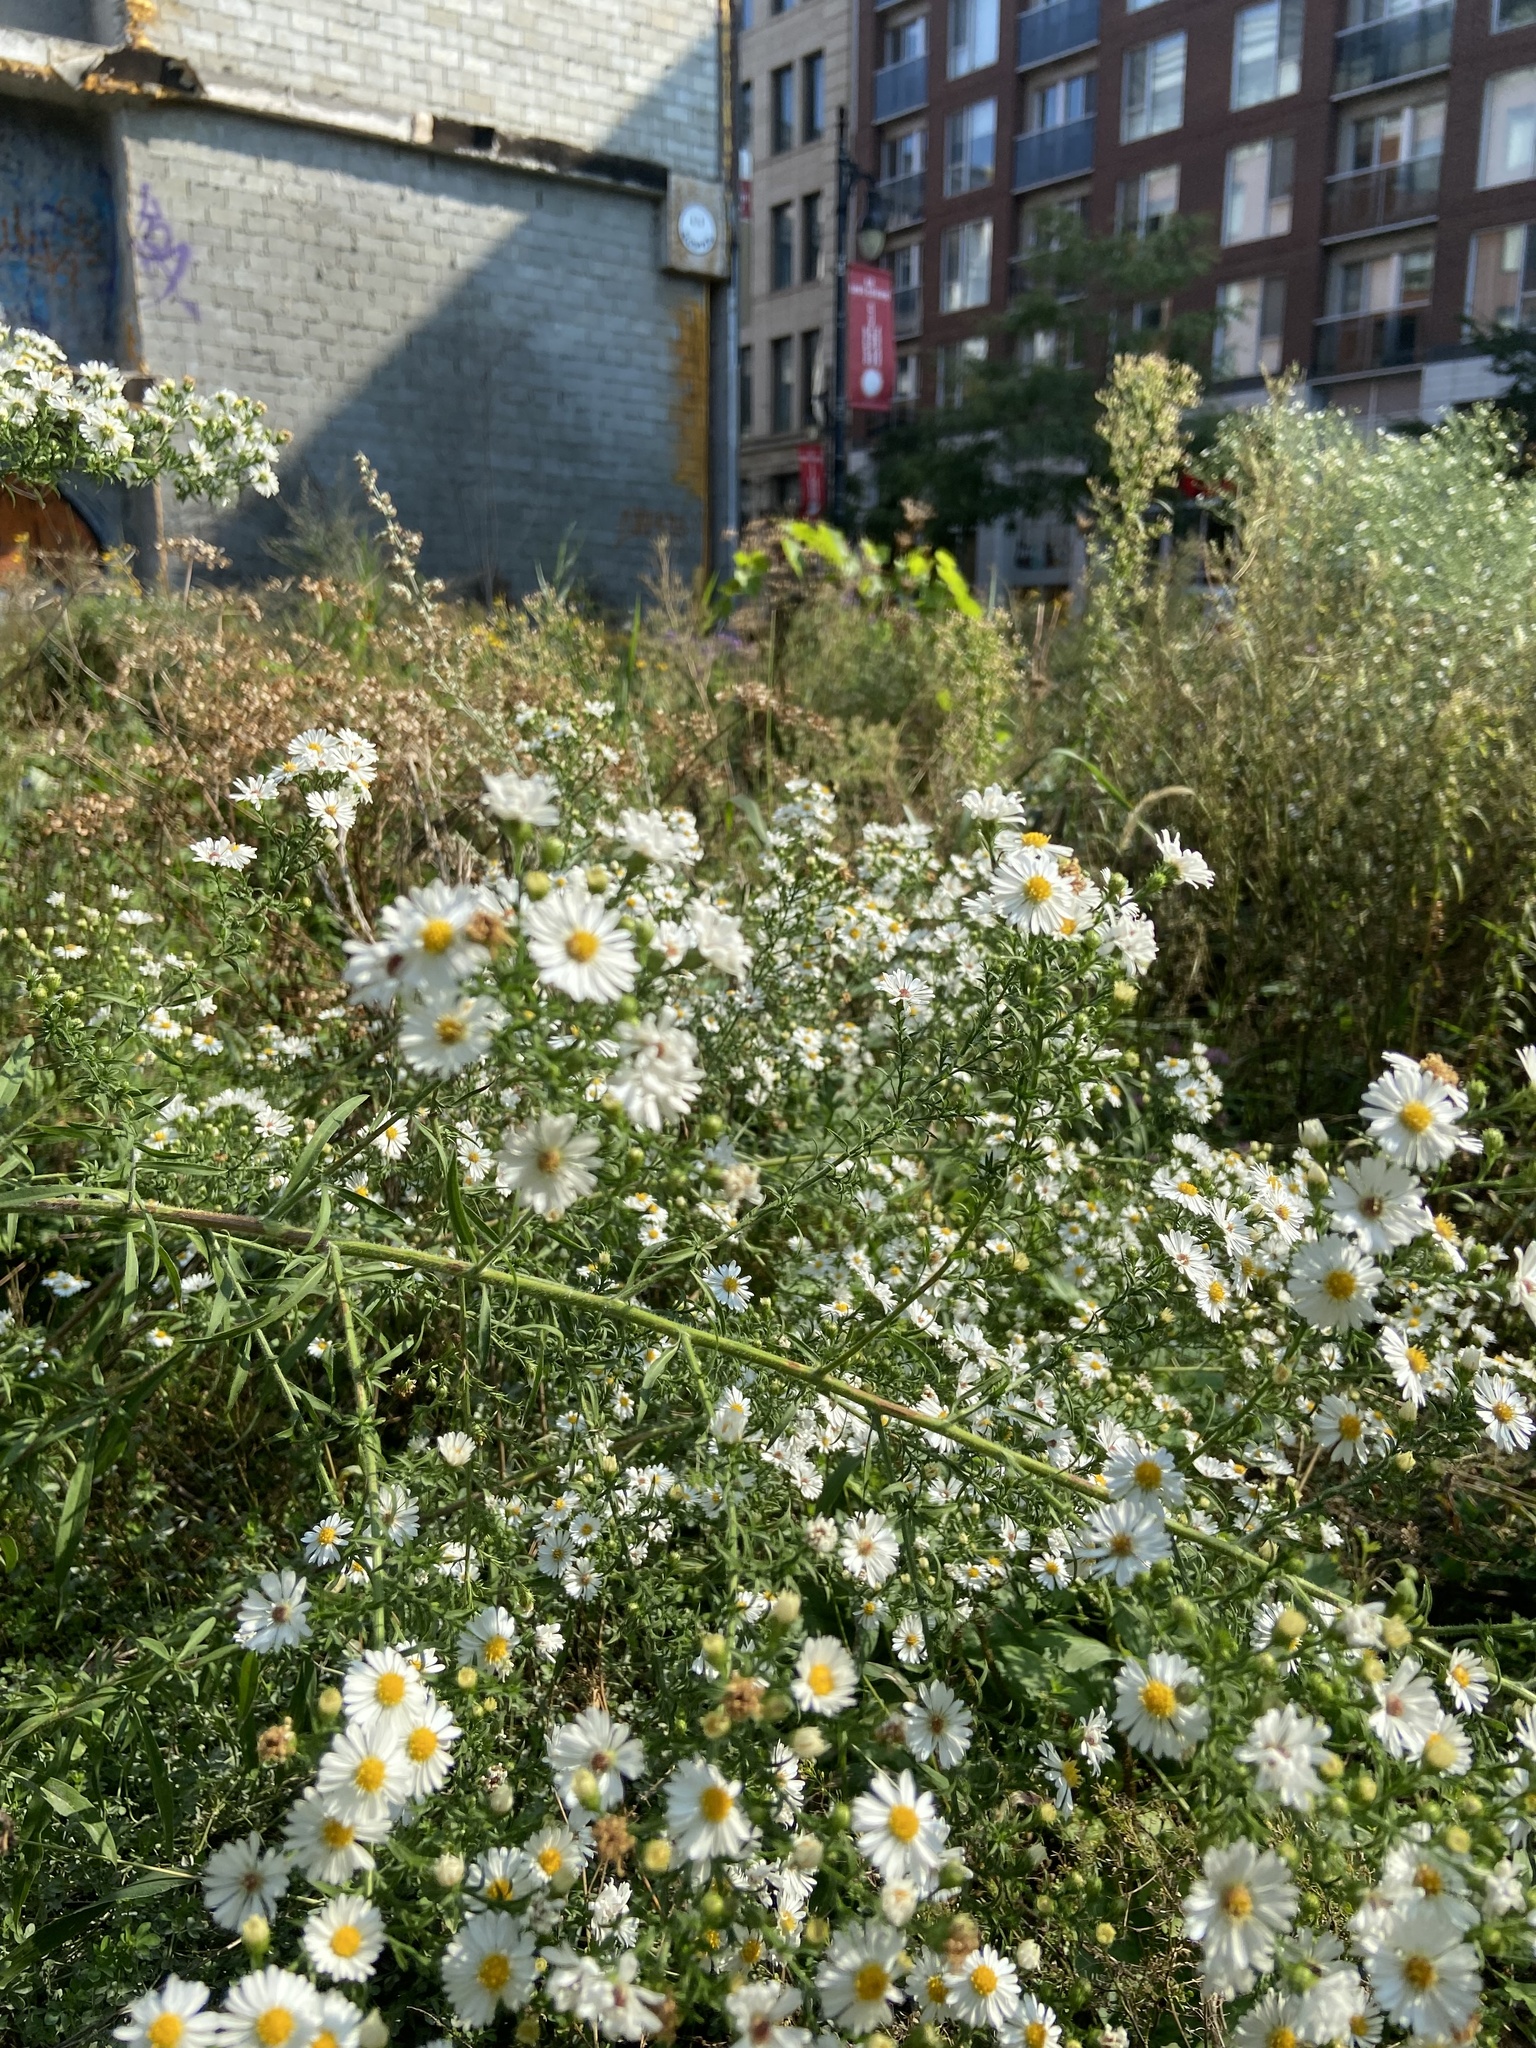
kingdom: Plantae
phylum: Tracheophyta
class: Magnoliopsida
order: Asterales
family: Asteraceae
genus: Symphyotrichum
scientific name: Symphyotrichum pilosum
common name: Awl aster
